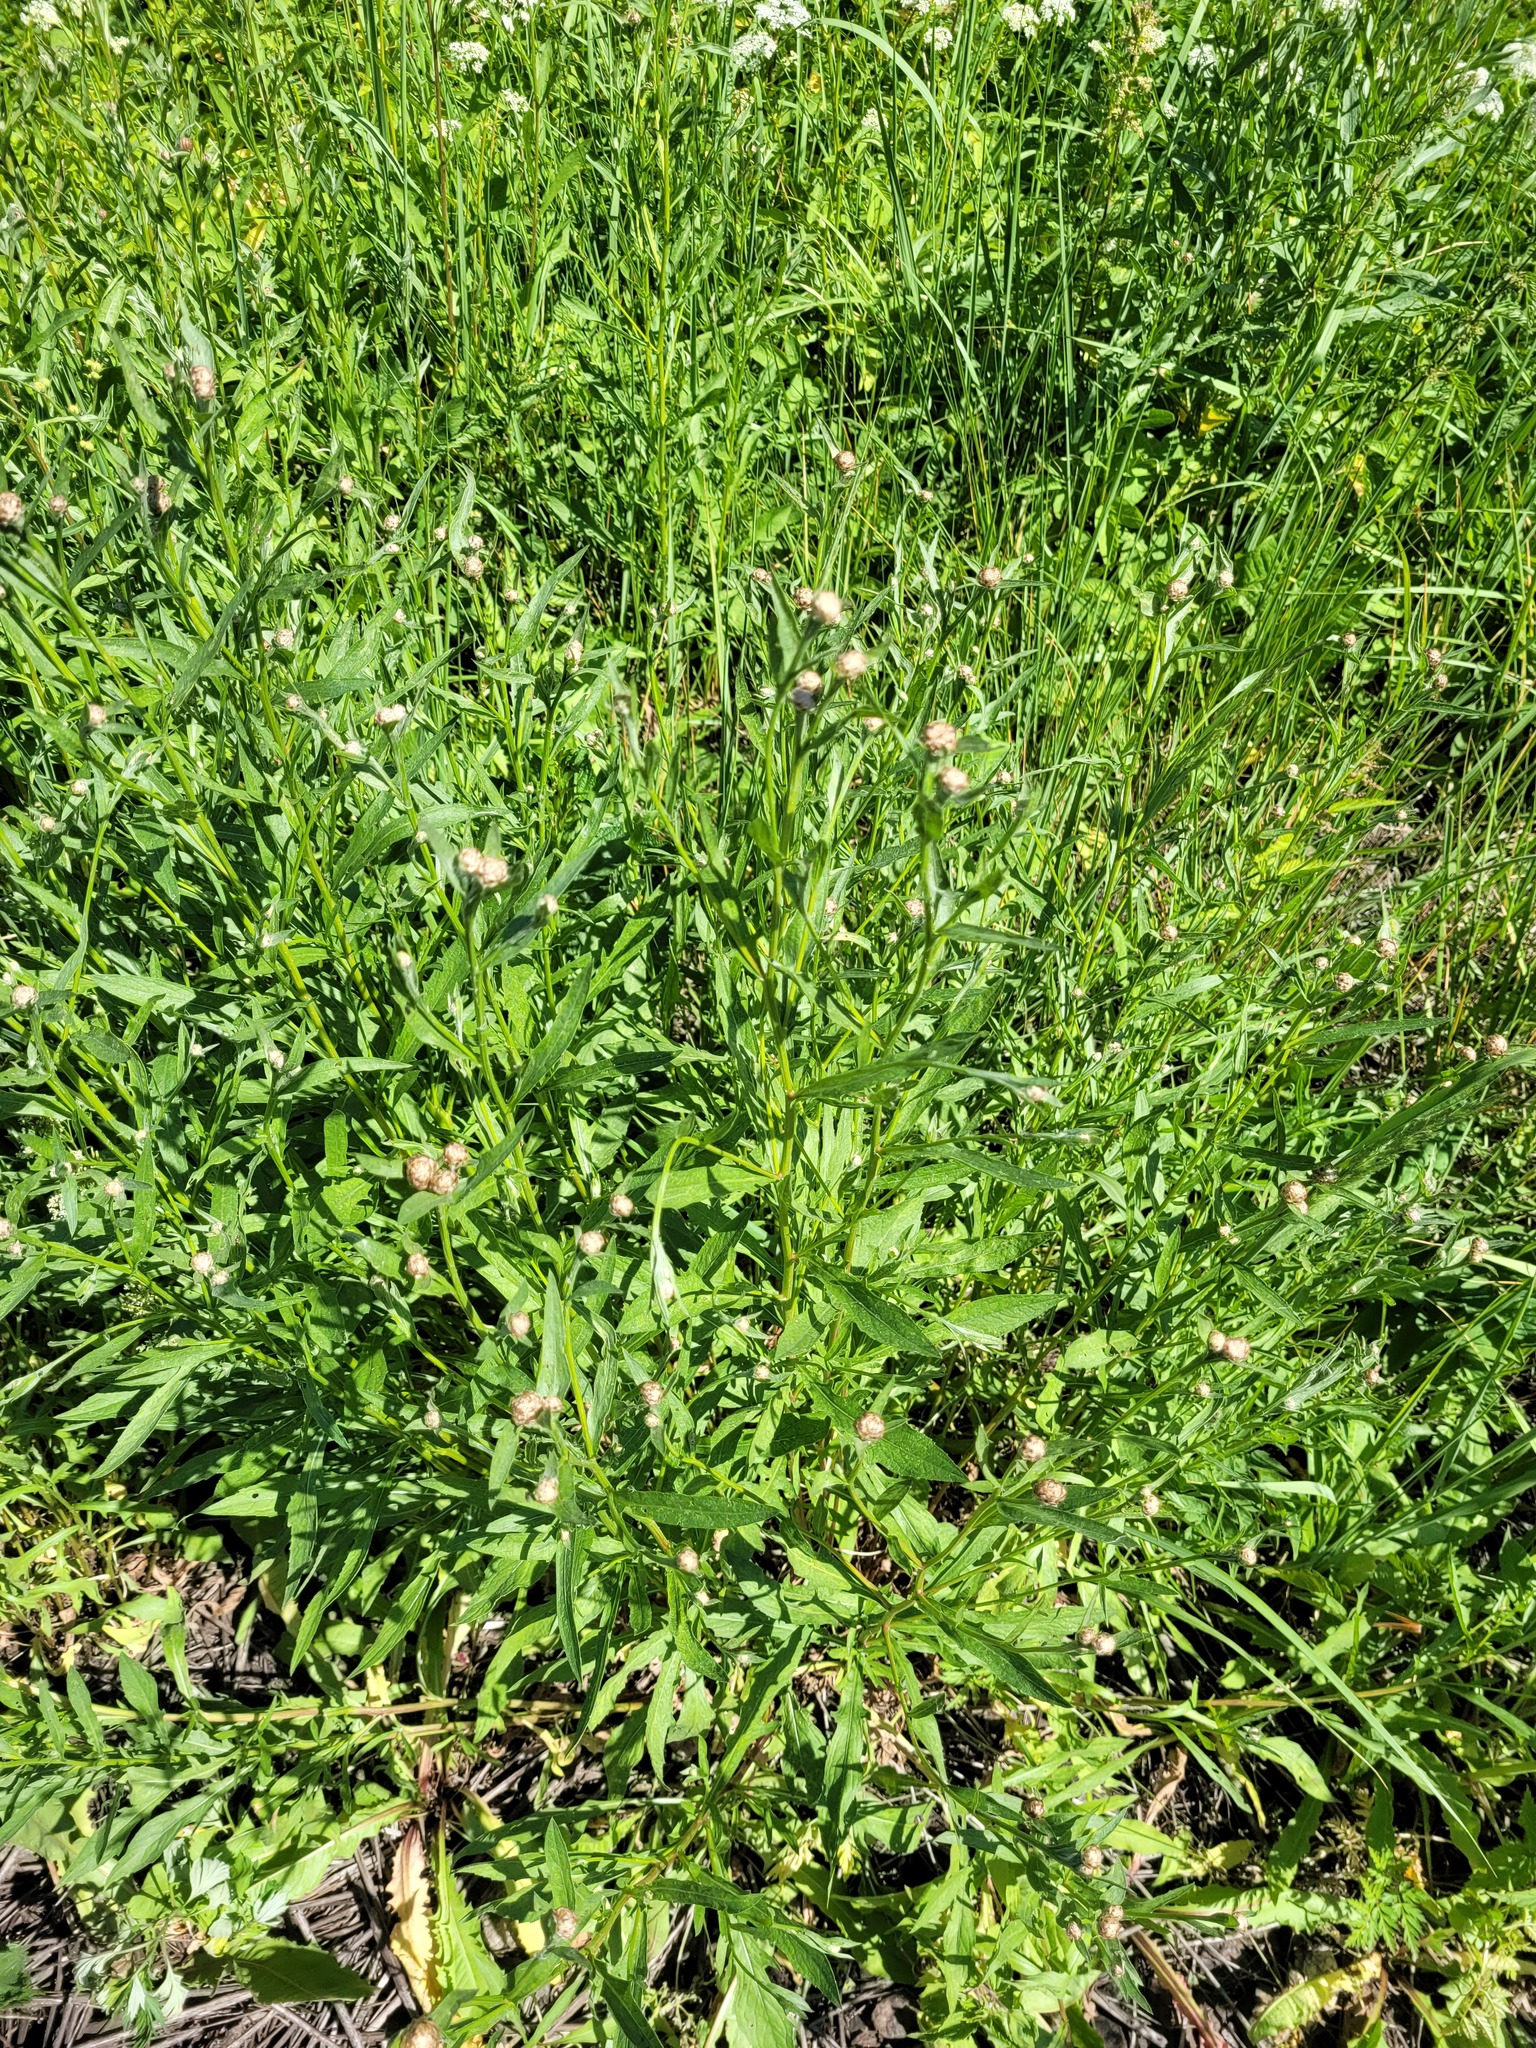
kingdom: Plantae
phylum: Tracheophyta
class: Magnoliopsida
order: Asterales
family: Asteraceae
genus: Centaurea
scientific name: Centaurea jacea
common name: Brown knapweed
